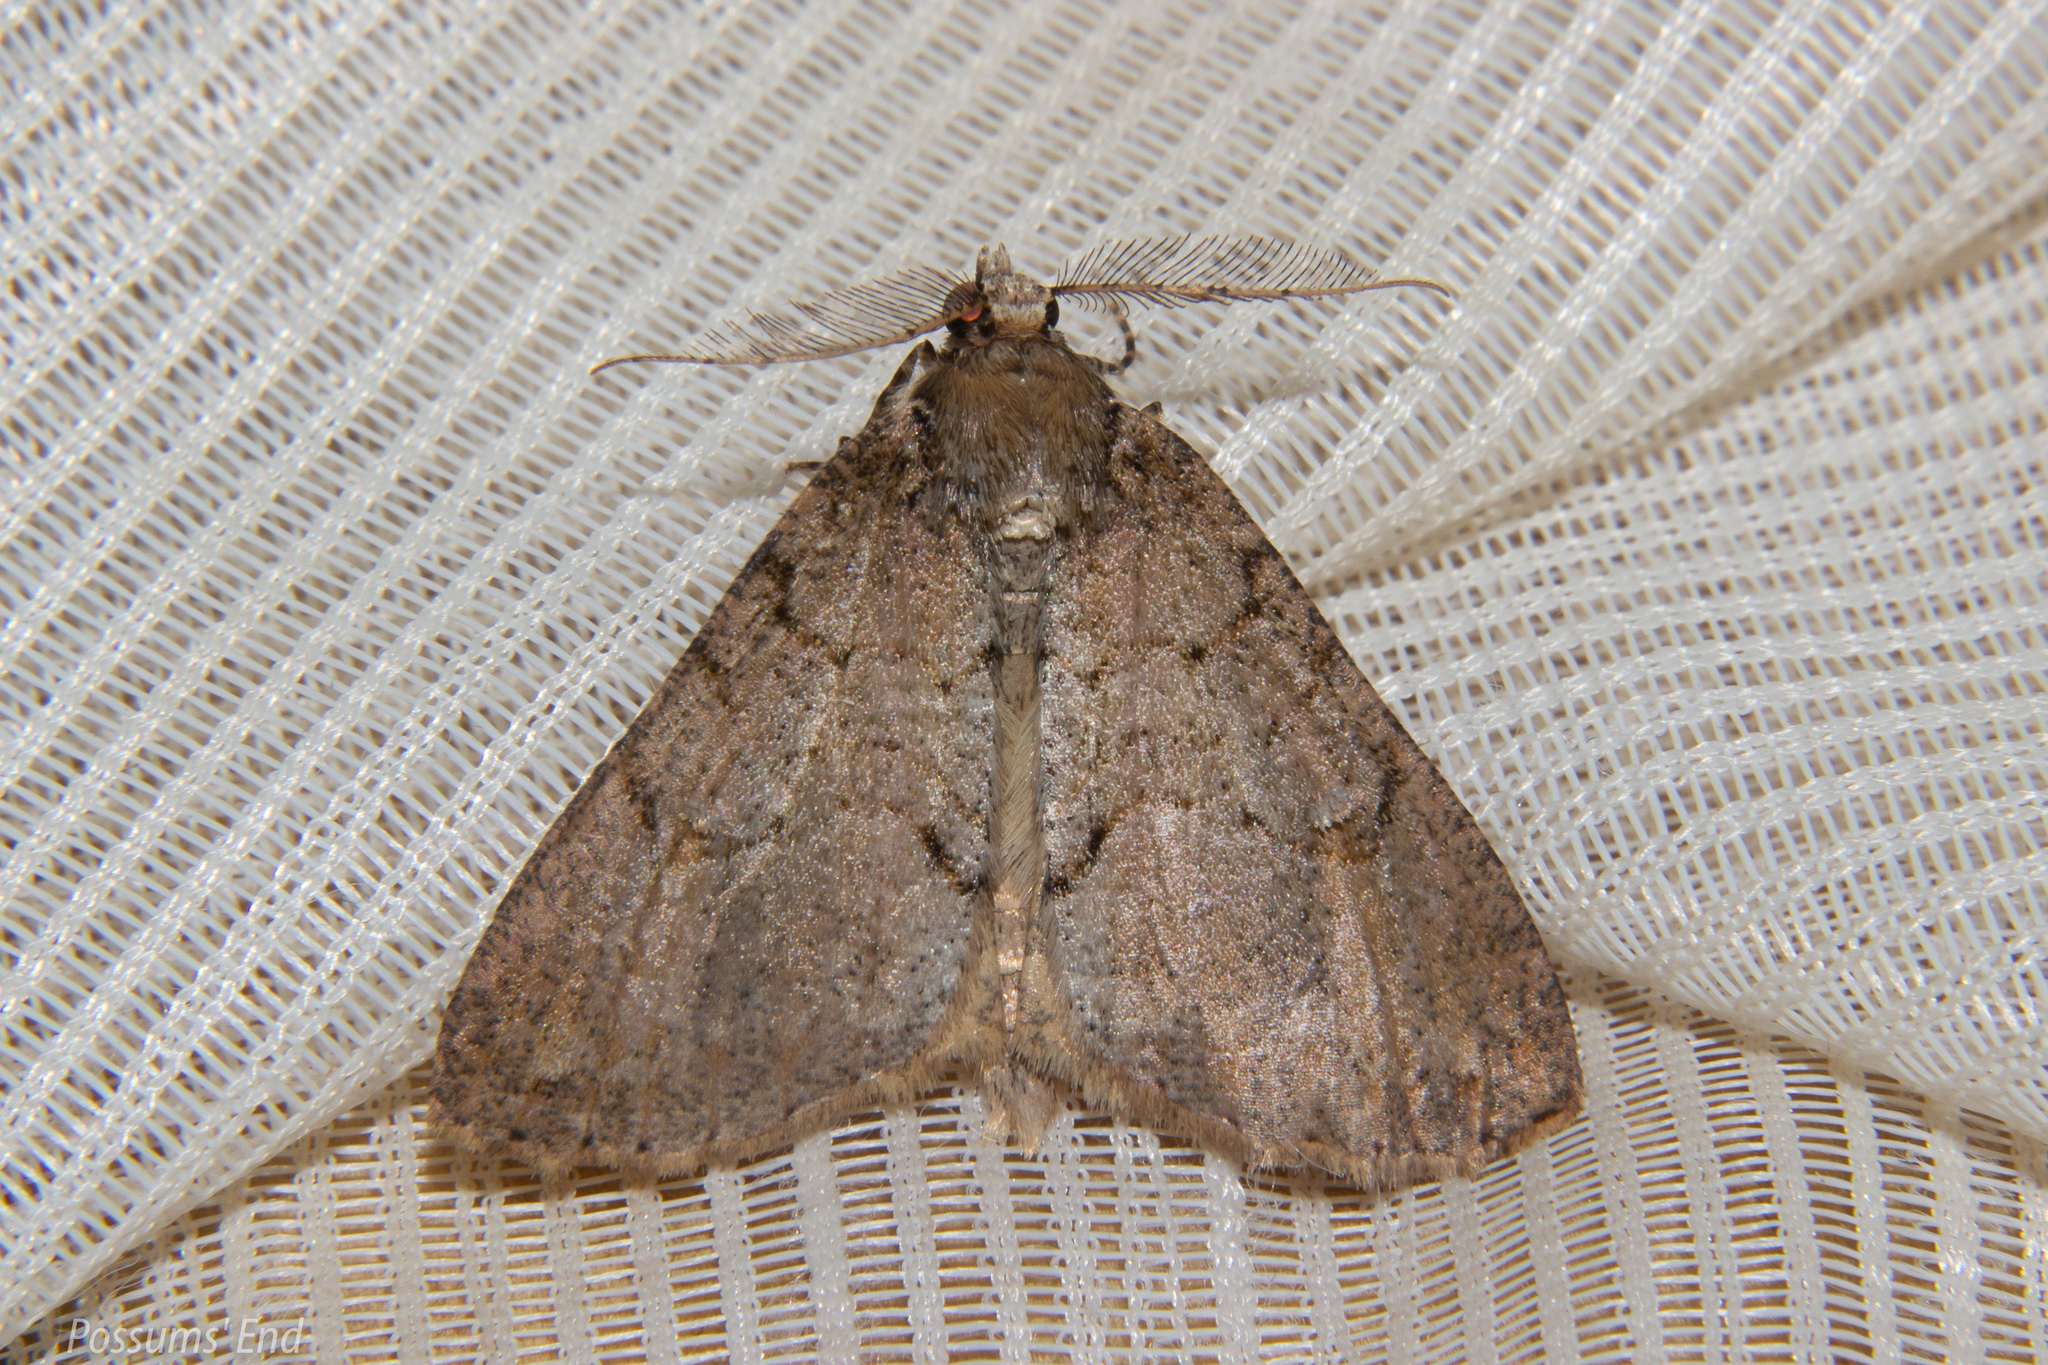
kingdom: Animalia
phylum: Arthropoda
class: Insecta
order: Lepidoptera
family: Geometridae
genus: Pseudocoremia
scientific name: Pseudocoremia suavis
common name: Common forest looper
